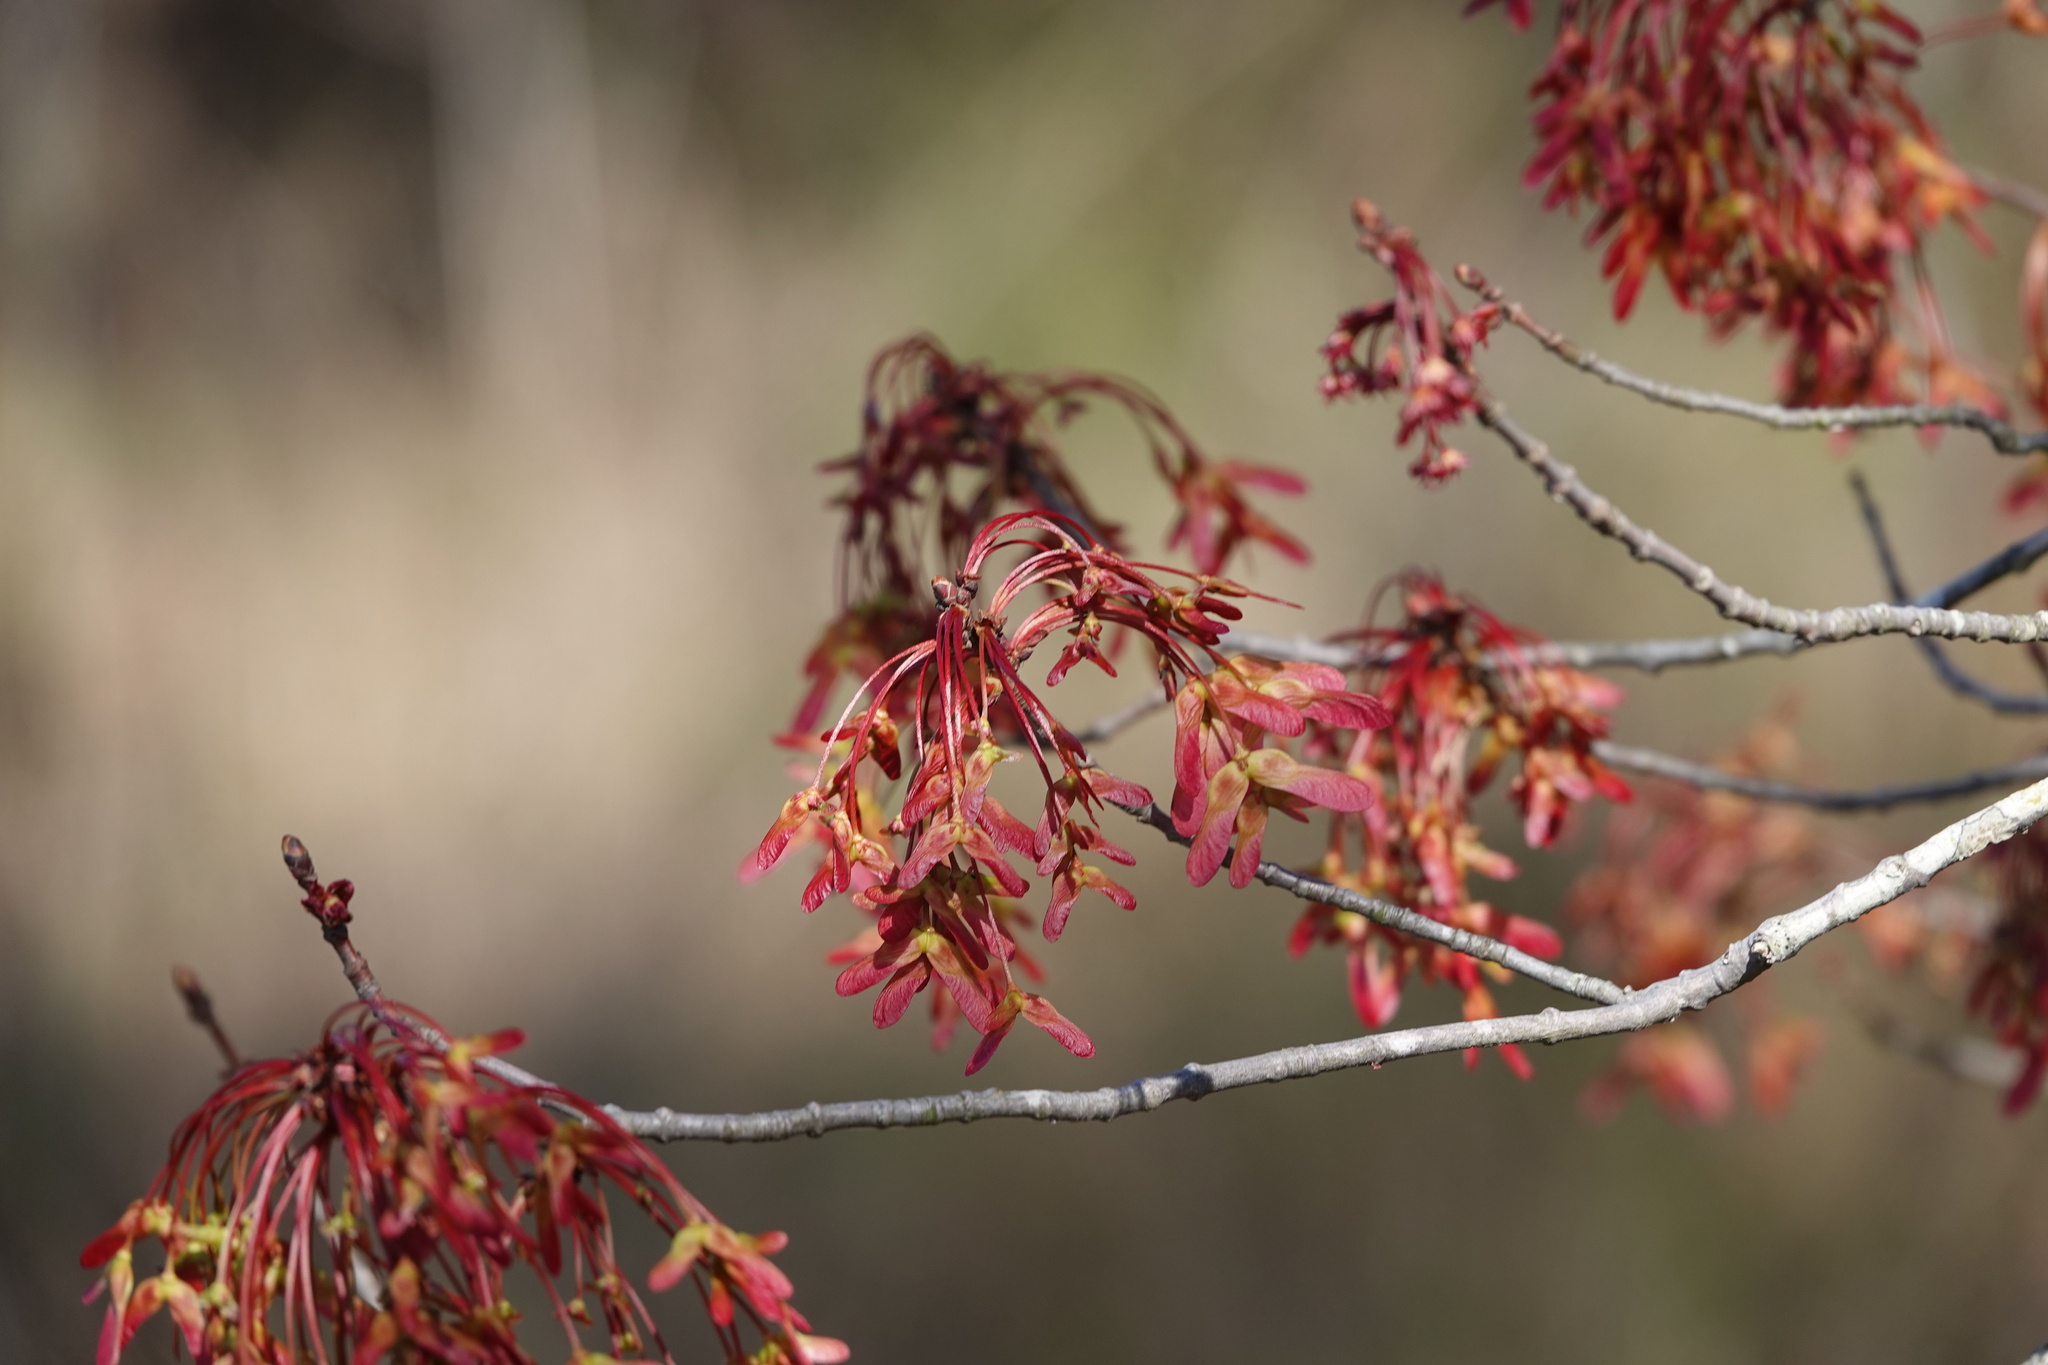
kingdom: Plantae
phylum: Tracheophyta
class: Magnoliopsida
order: Sapindales
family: Sapindaceae
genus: Acer
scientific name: Acer rubrum
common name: Red maple
